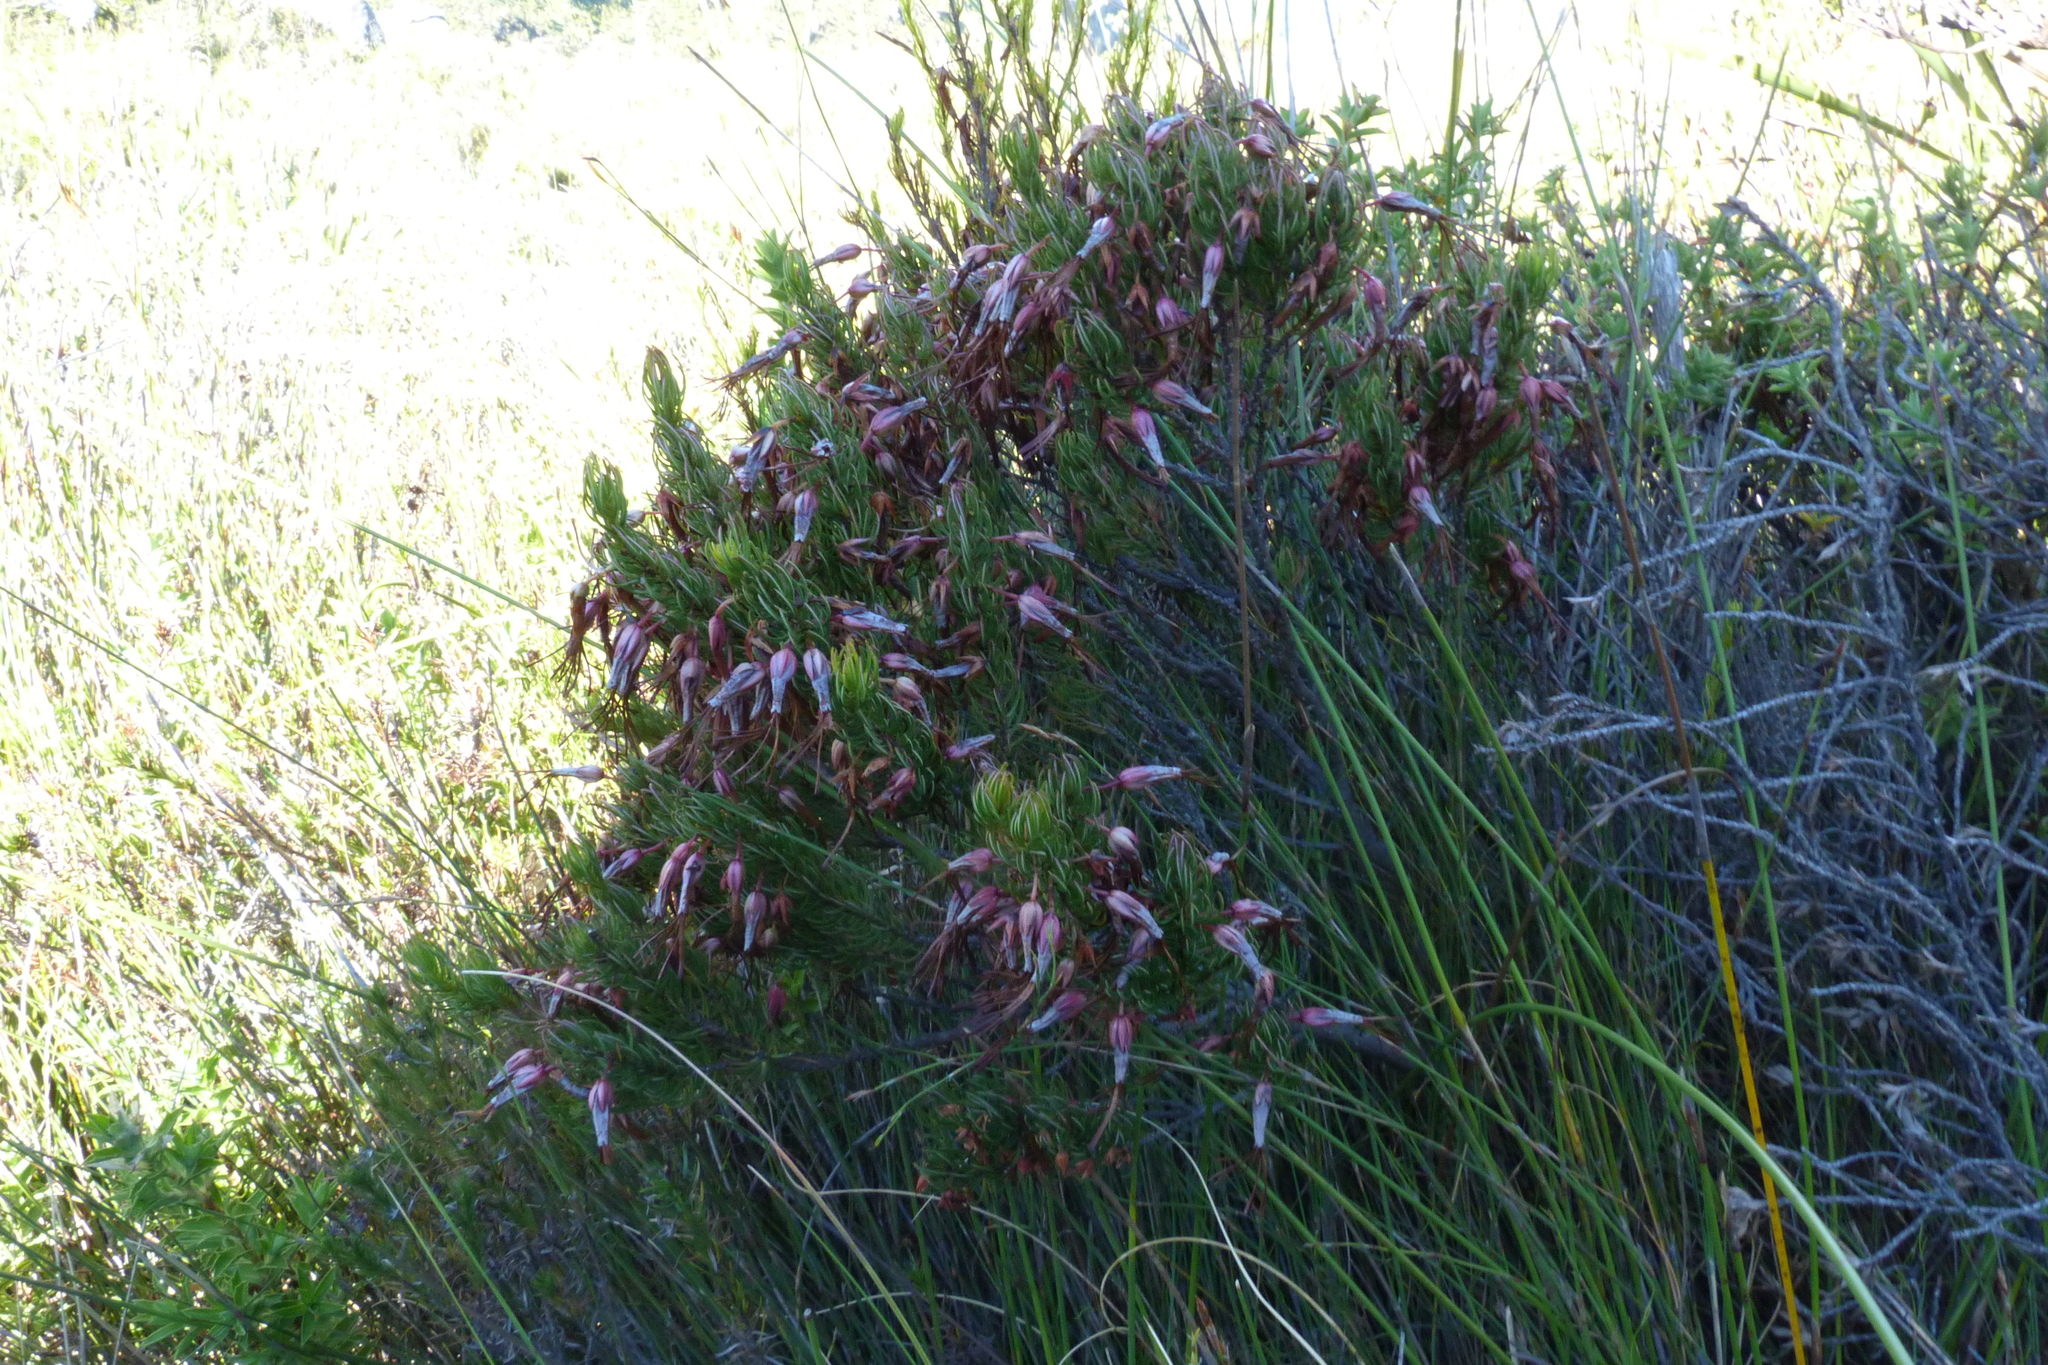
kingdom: Plantae
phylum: Tracheophyta
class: Magnoliopsida
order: Ericales
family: Ericaceae
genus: Erica
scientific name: Erica plukenetii
